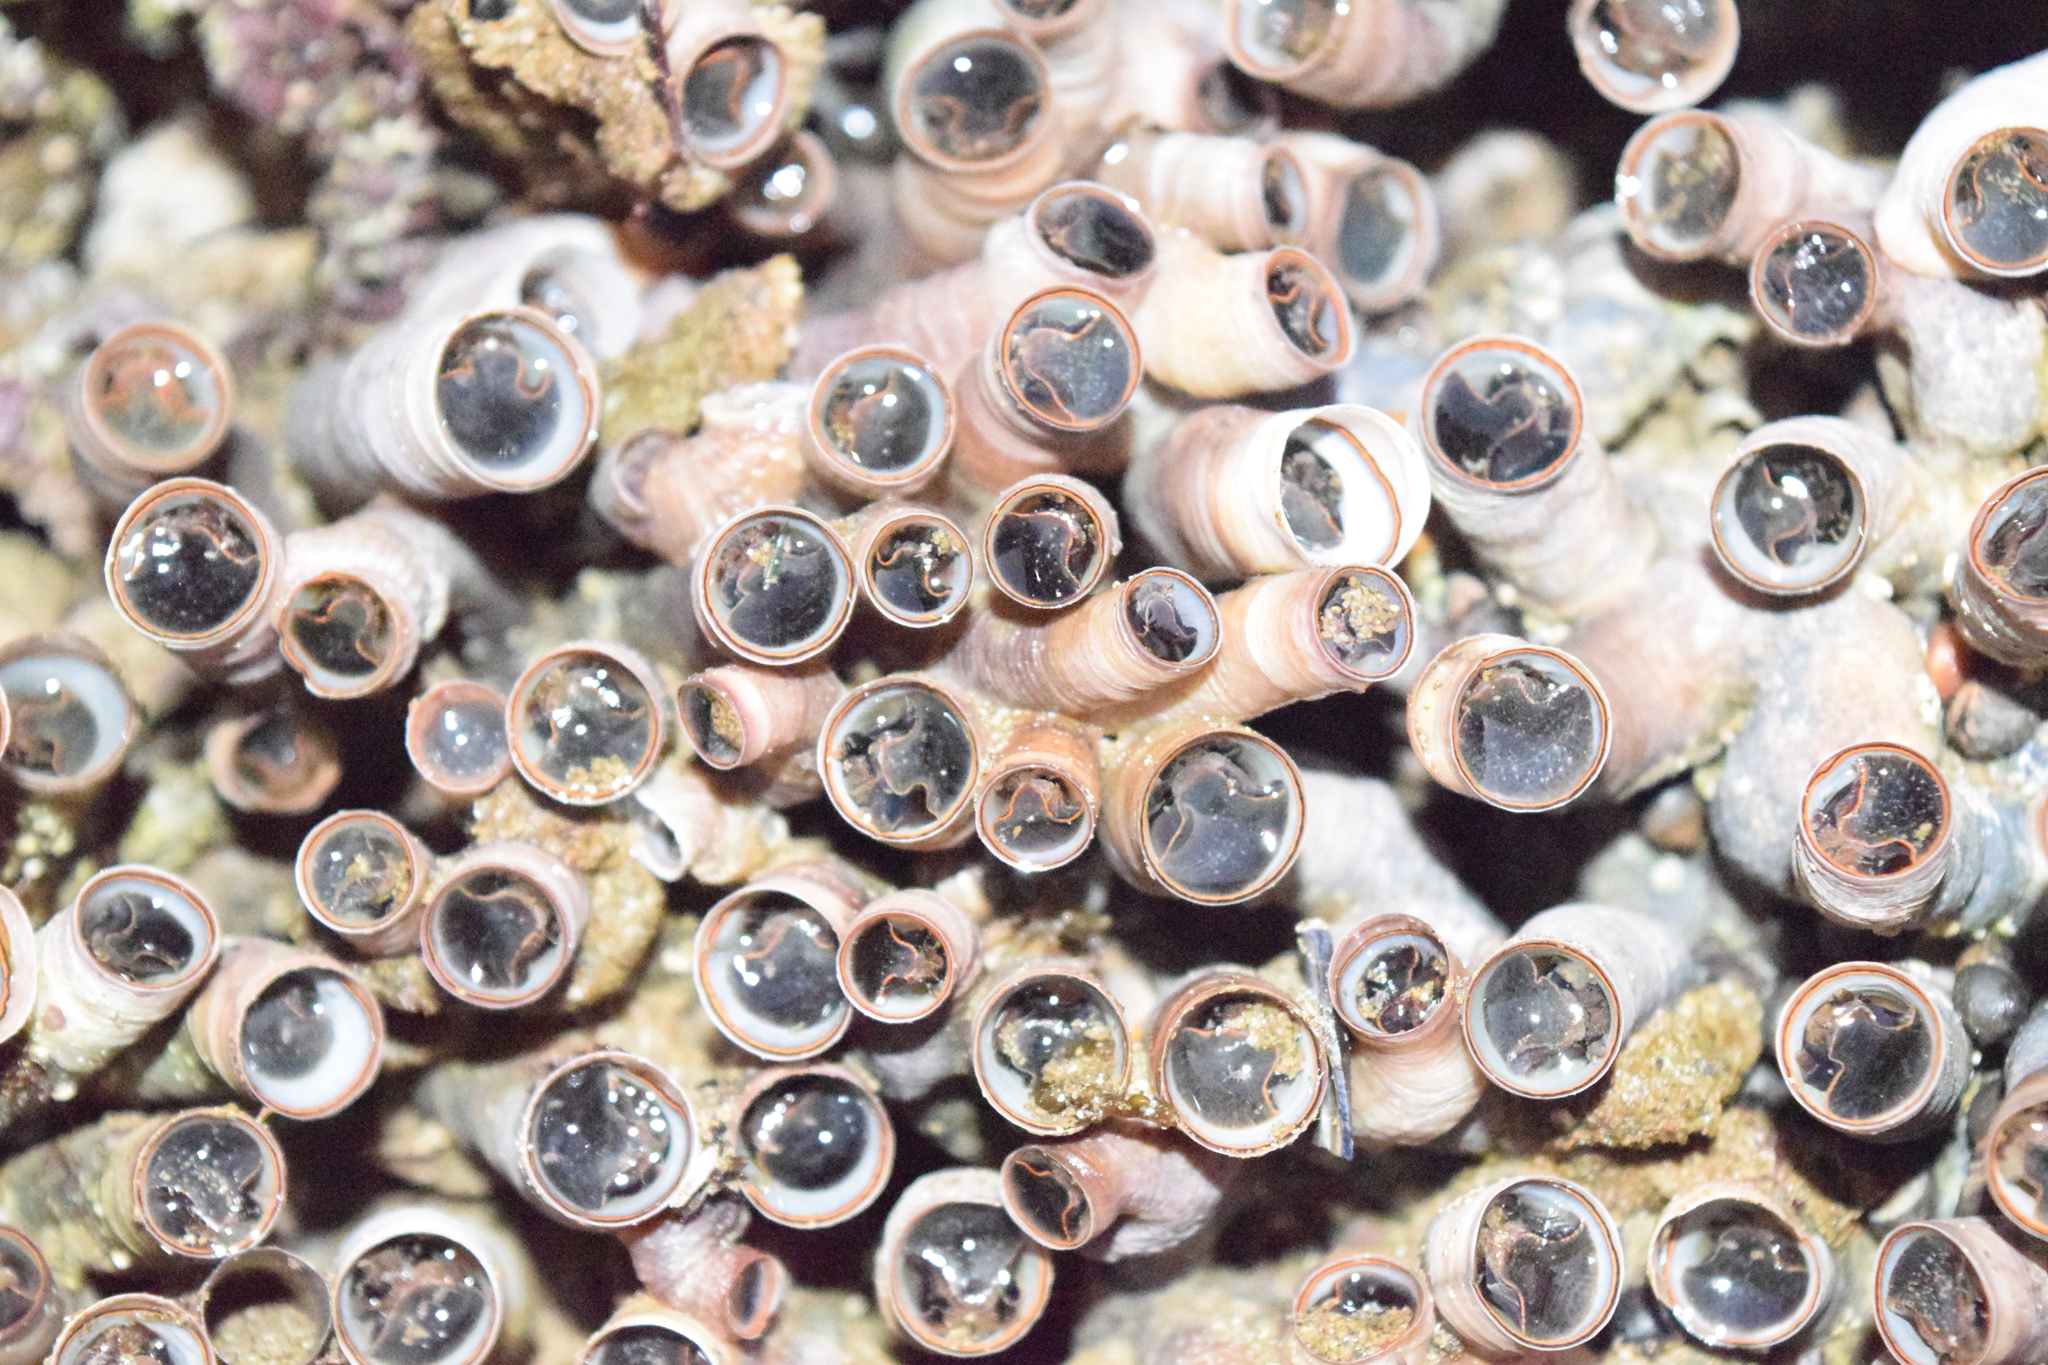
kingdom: Animalia
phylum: Mollusca
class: Gastropoda
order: Littorinimorpha
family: Vermetidae
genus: Thylacodes
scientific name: Thylacodes squamigerus
